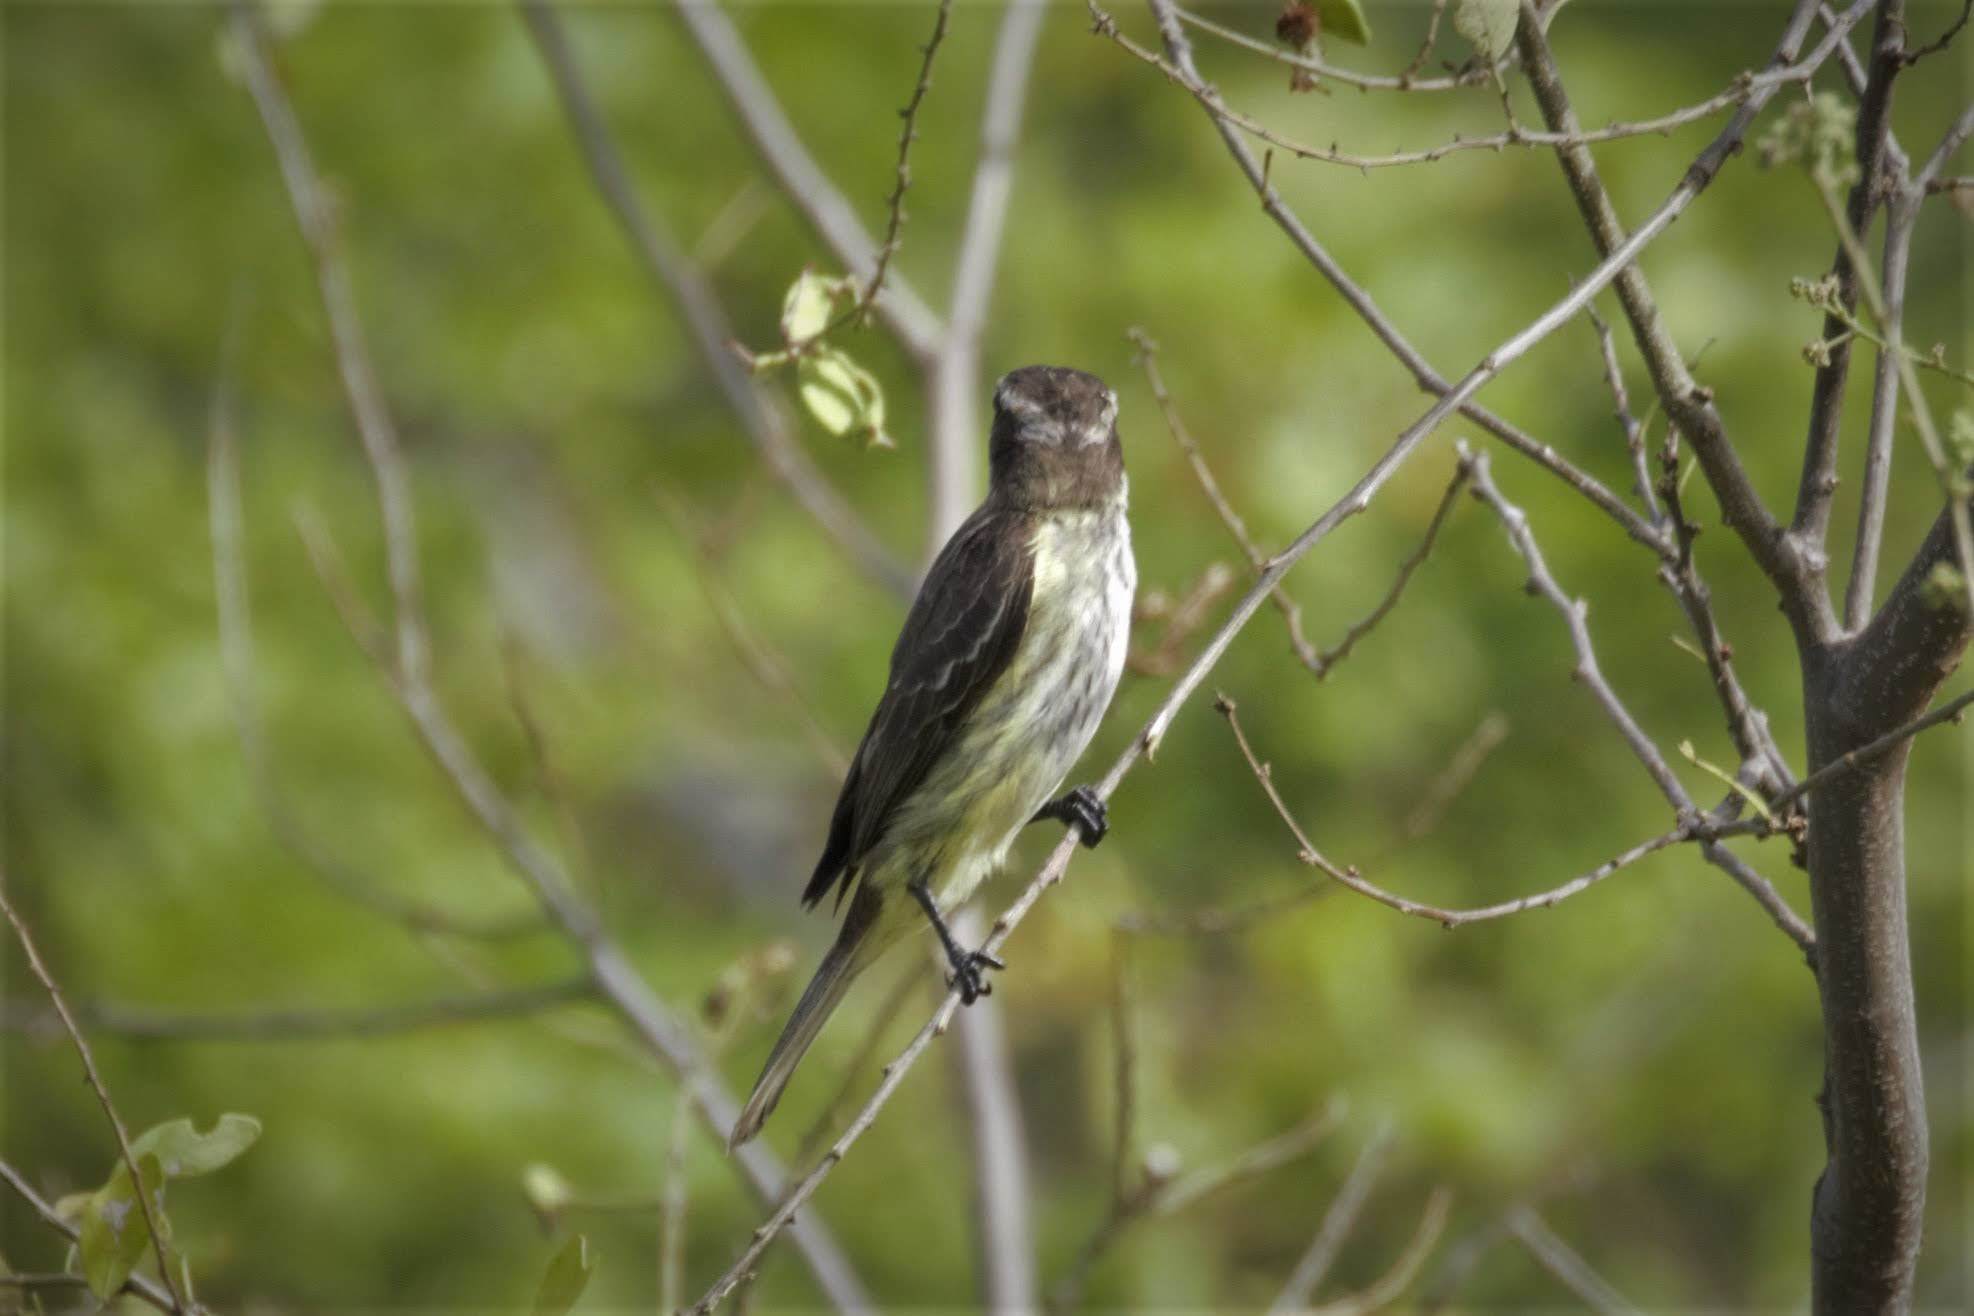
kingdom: Animalia
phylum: Chordata
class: Aves
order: Passeriformes
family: Tyrannidae
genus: Legatus
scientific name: Legatus leucophaius
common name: Piratic flycatcher
